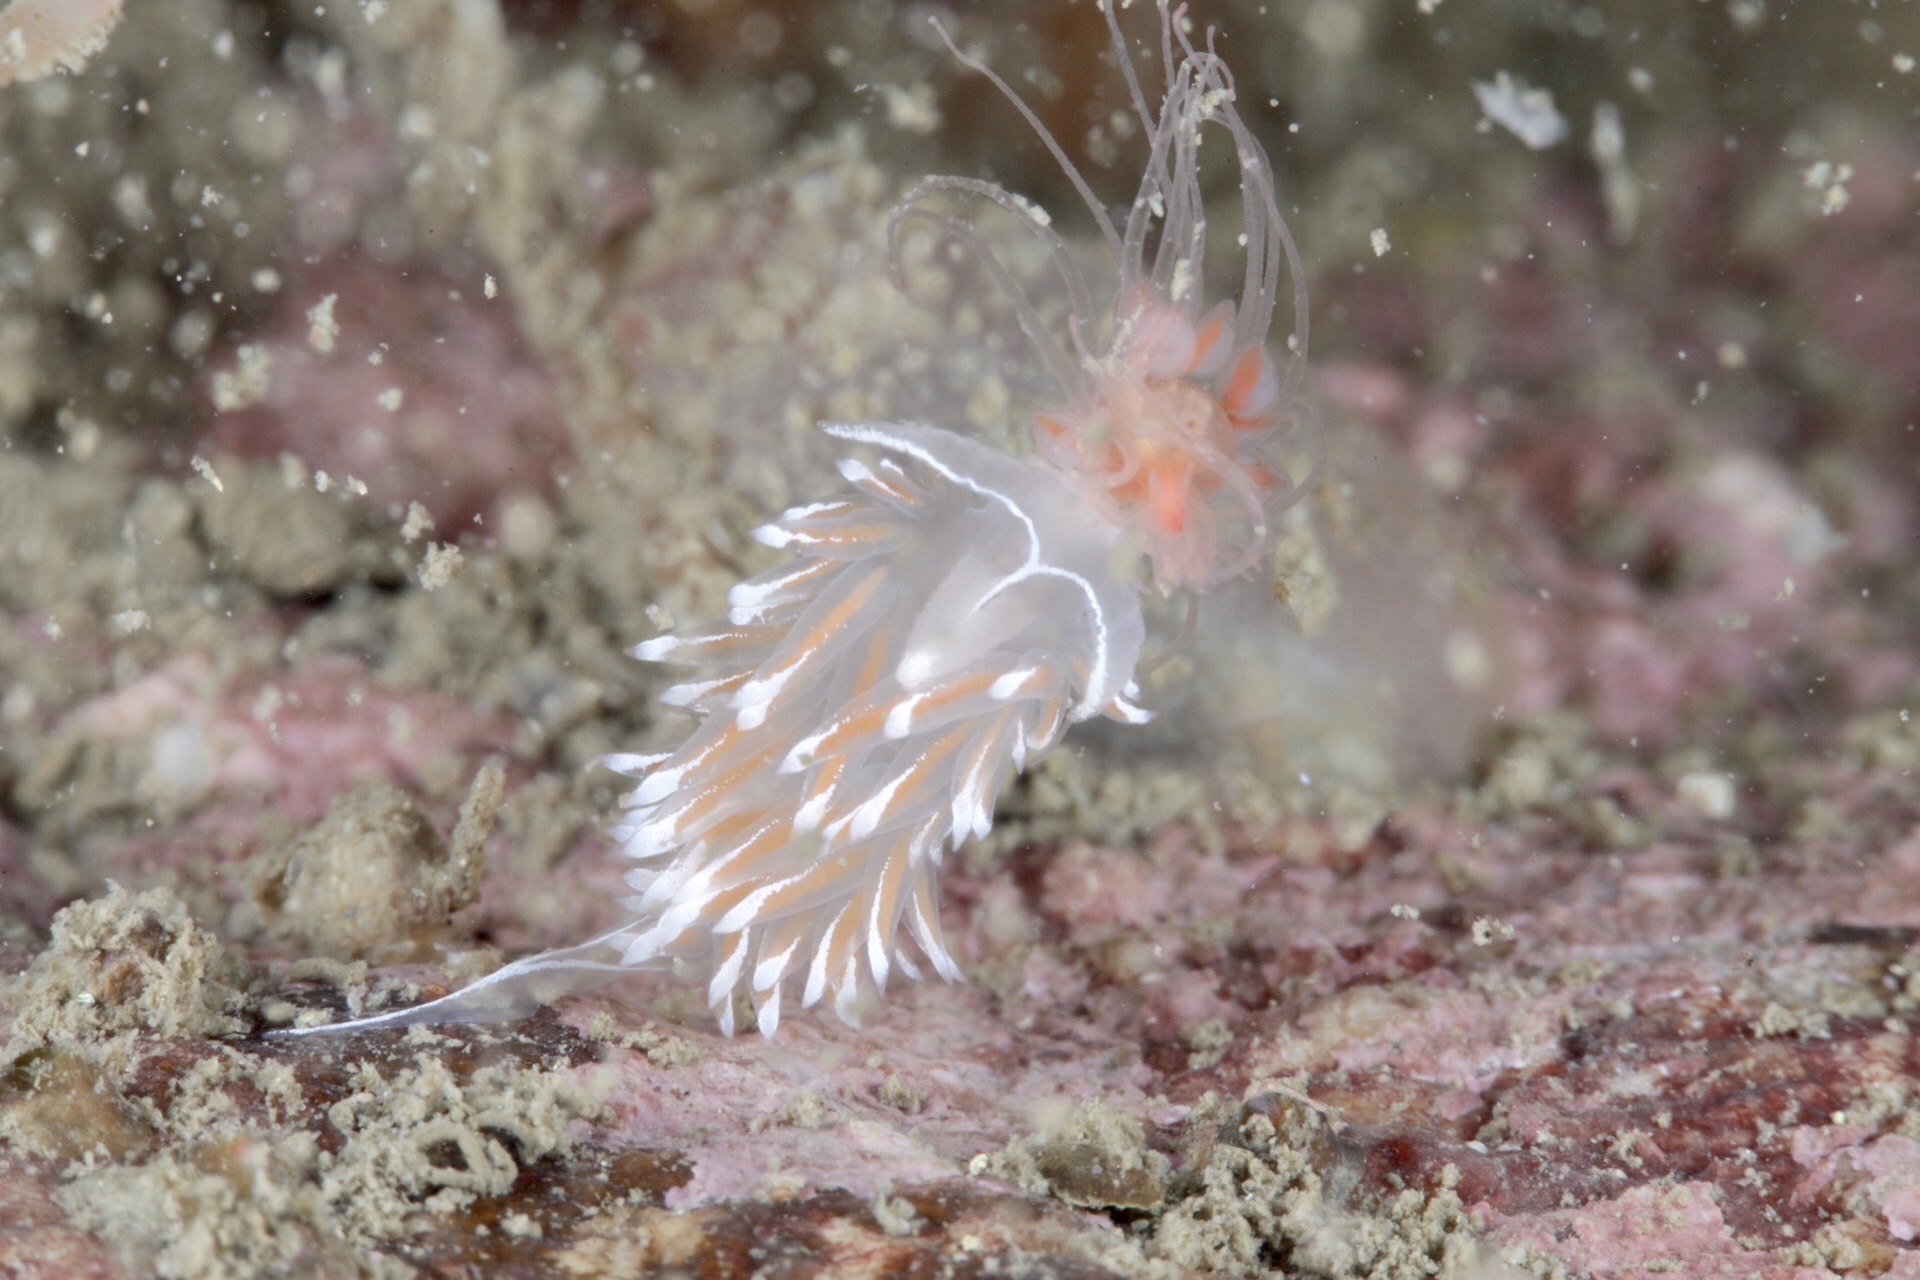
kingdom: Animalia
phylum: Mollusca
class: Gastropoda
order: Nudibranchia
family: Coryphellidae
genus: Coryphella
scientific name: Coryphella lineata
